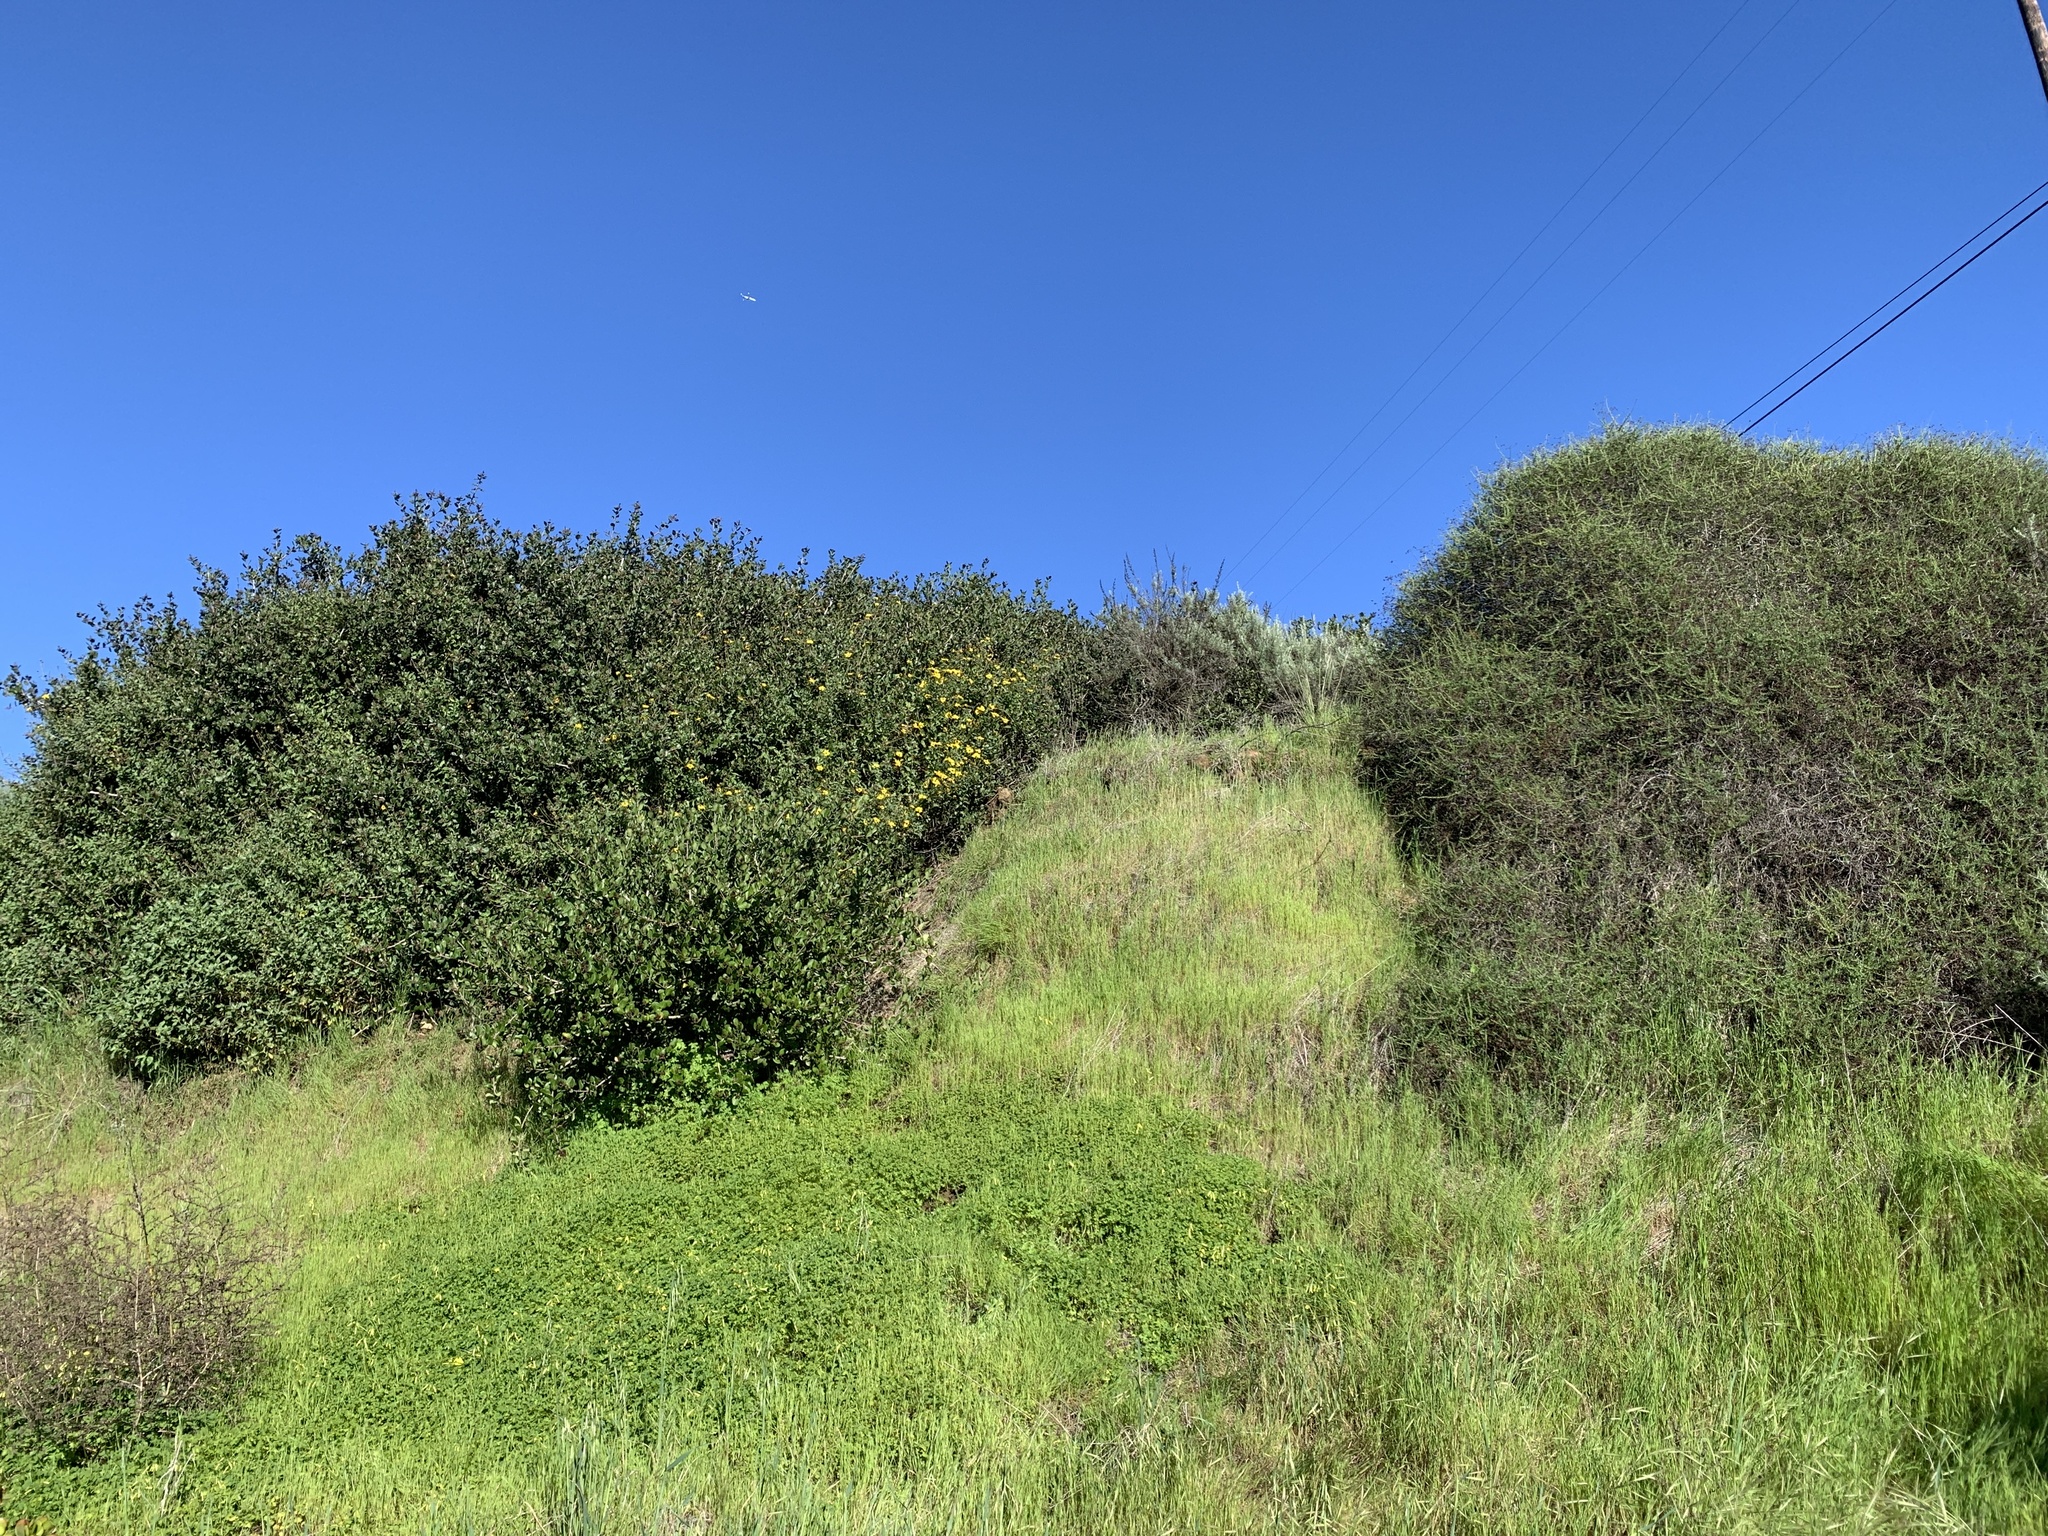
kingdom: Plantae
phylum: Tracheophyta
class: Magnoliopsida
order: Asterales
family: Asteraceae
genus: Encelia
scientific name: Encelia californica
